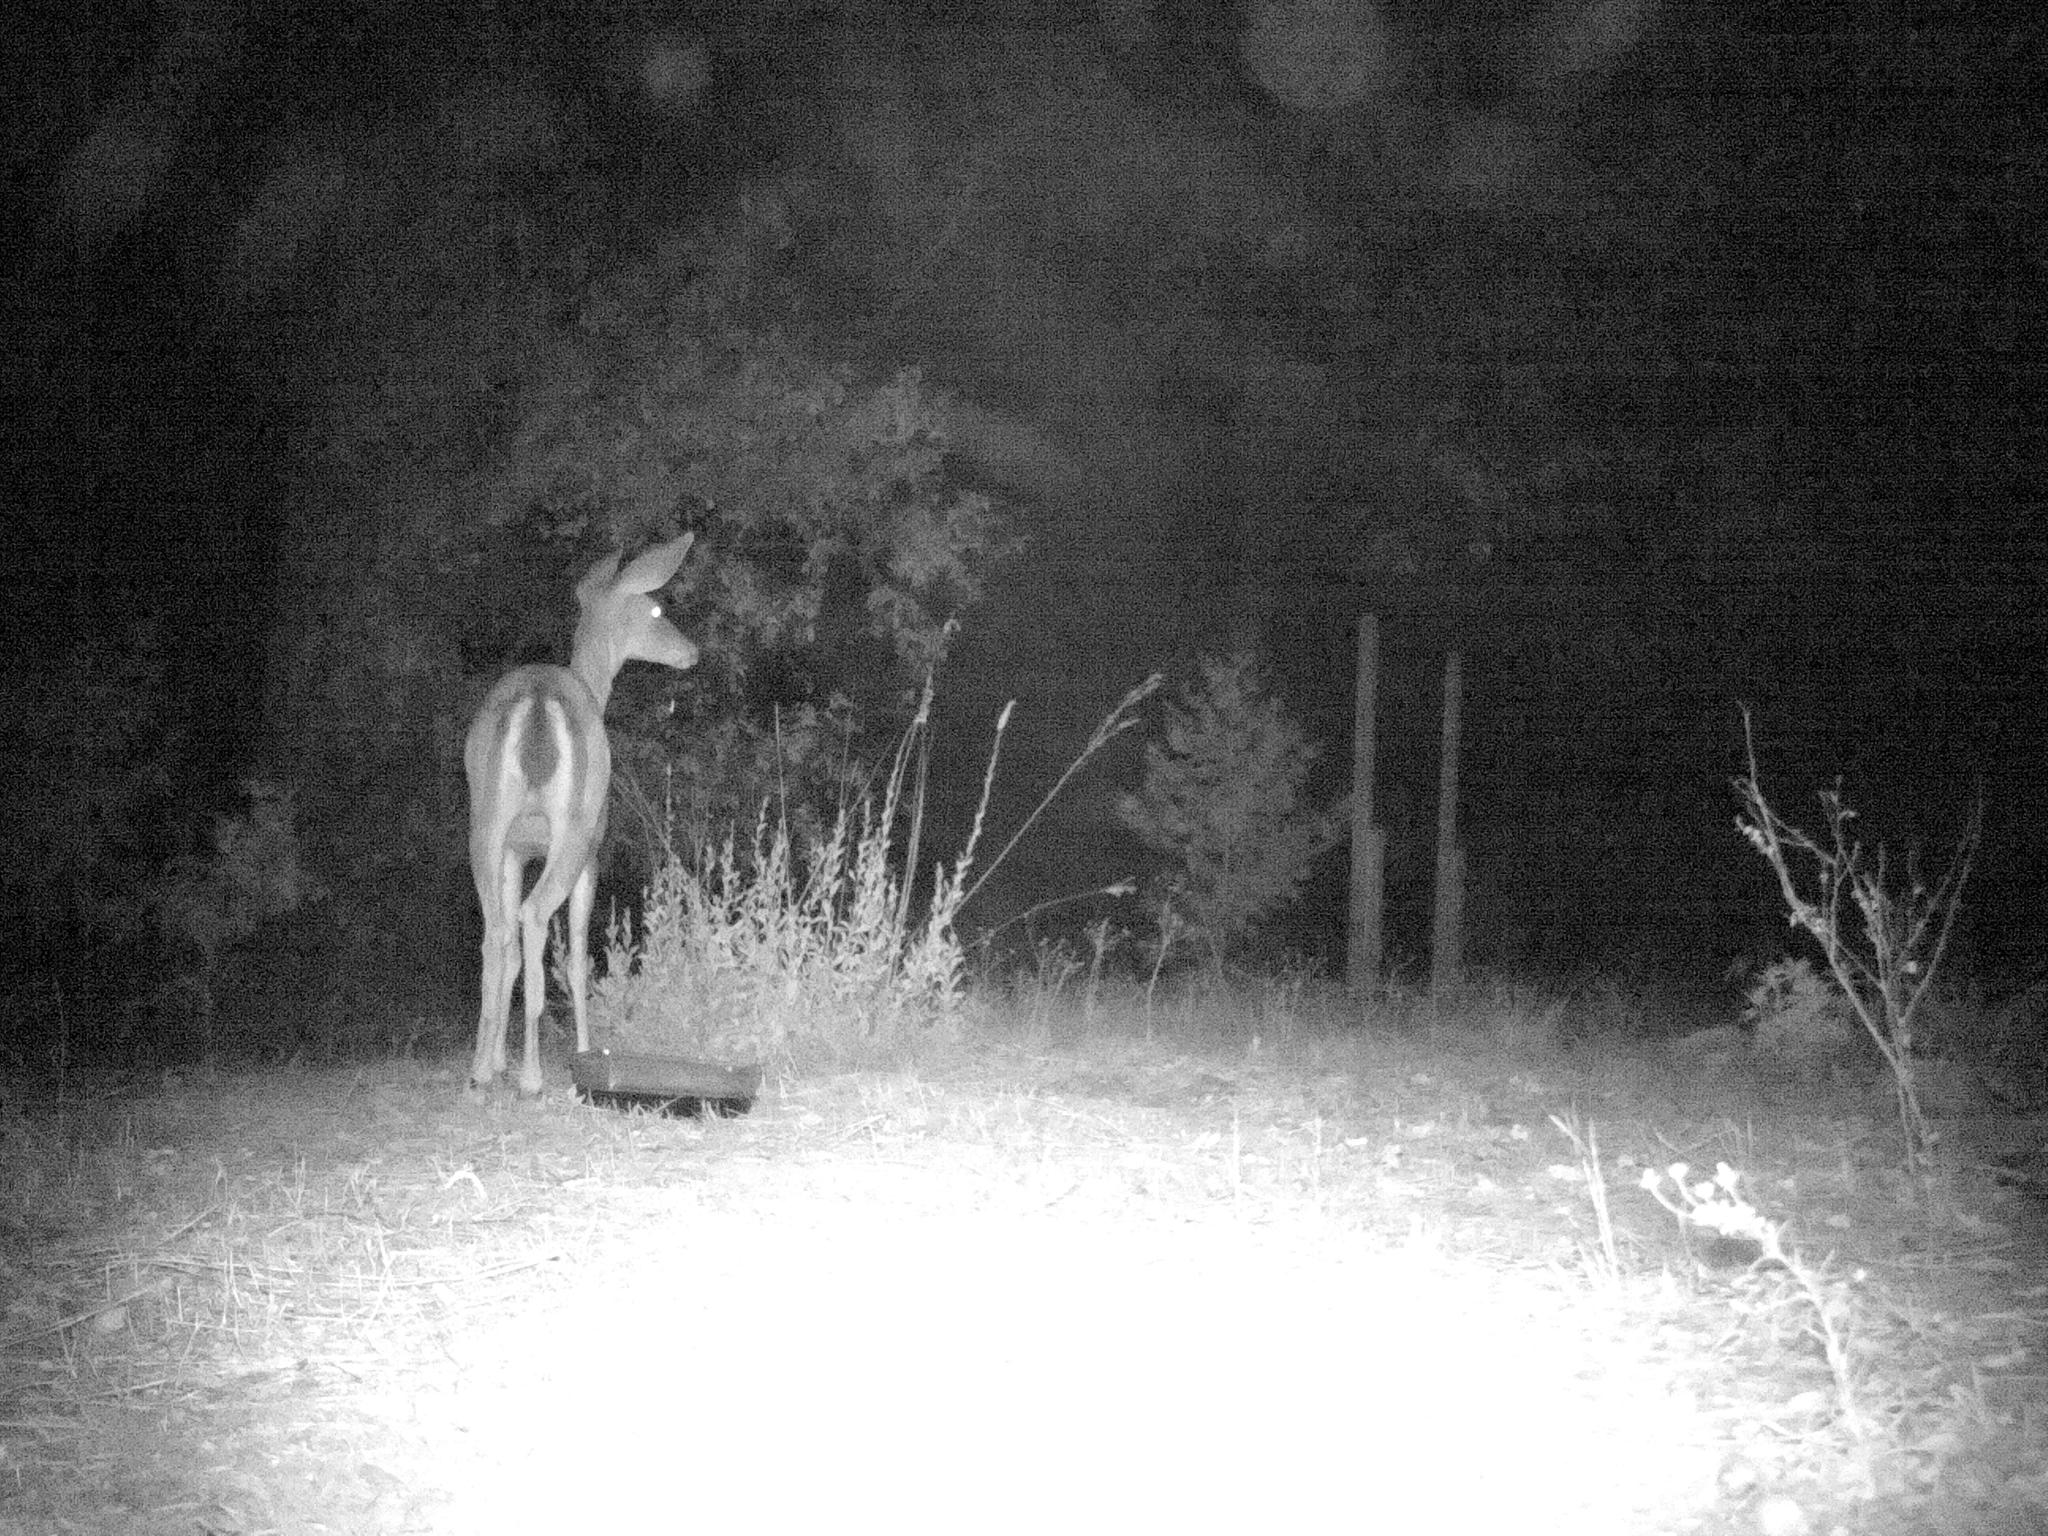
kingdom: Animalia
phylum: Chordata
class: Mammalia
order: Artiodactyla
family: Cervidae
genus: Odocoileus
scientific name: Odocoileus hemionus
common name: Mule deer
